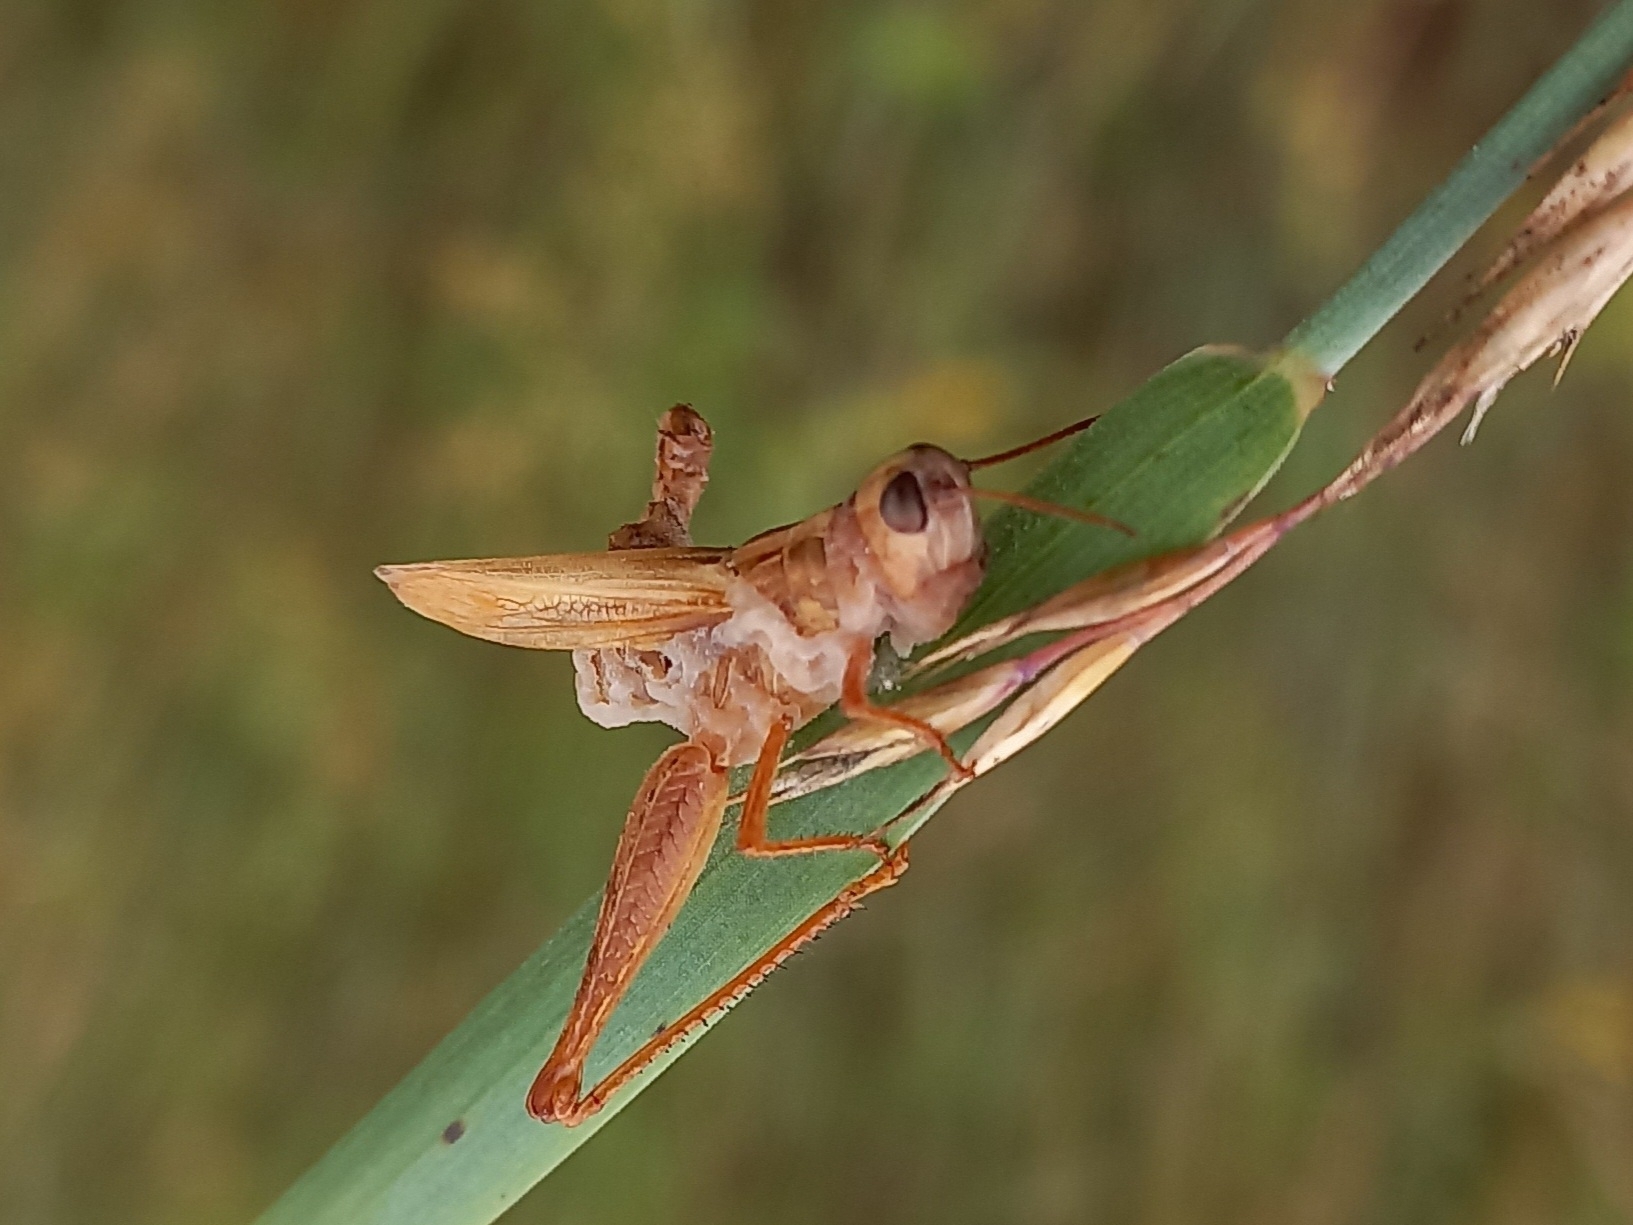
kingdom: Fungi
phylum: Entomophthoromycota
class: Entomophthoromycetes
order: Entomophthorales
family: Entomophthoraceae
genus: Entomophaga
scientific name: Entomophaga grylli
